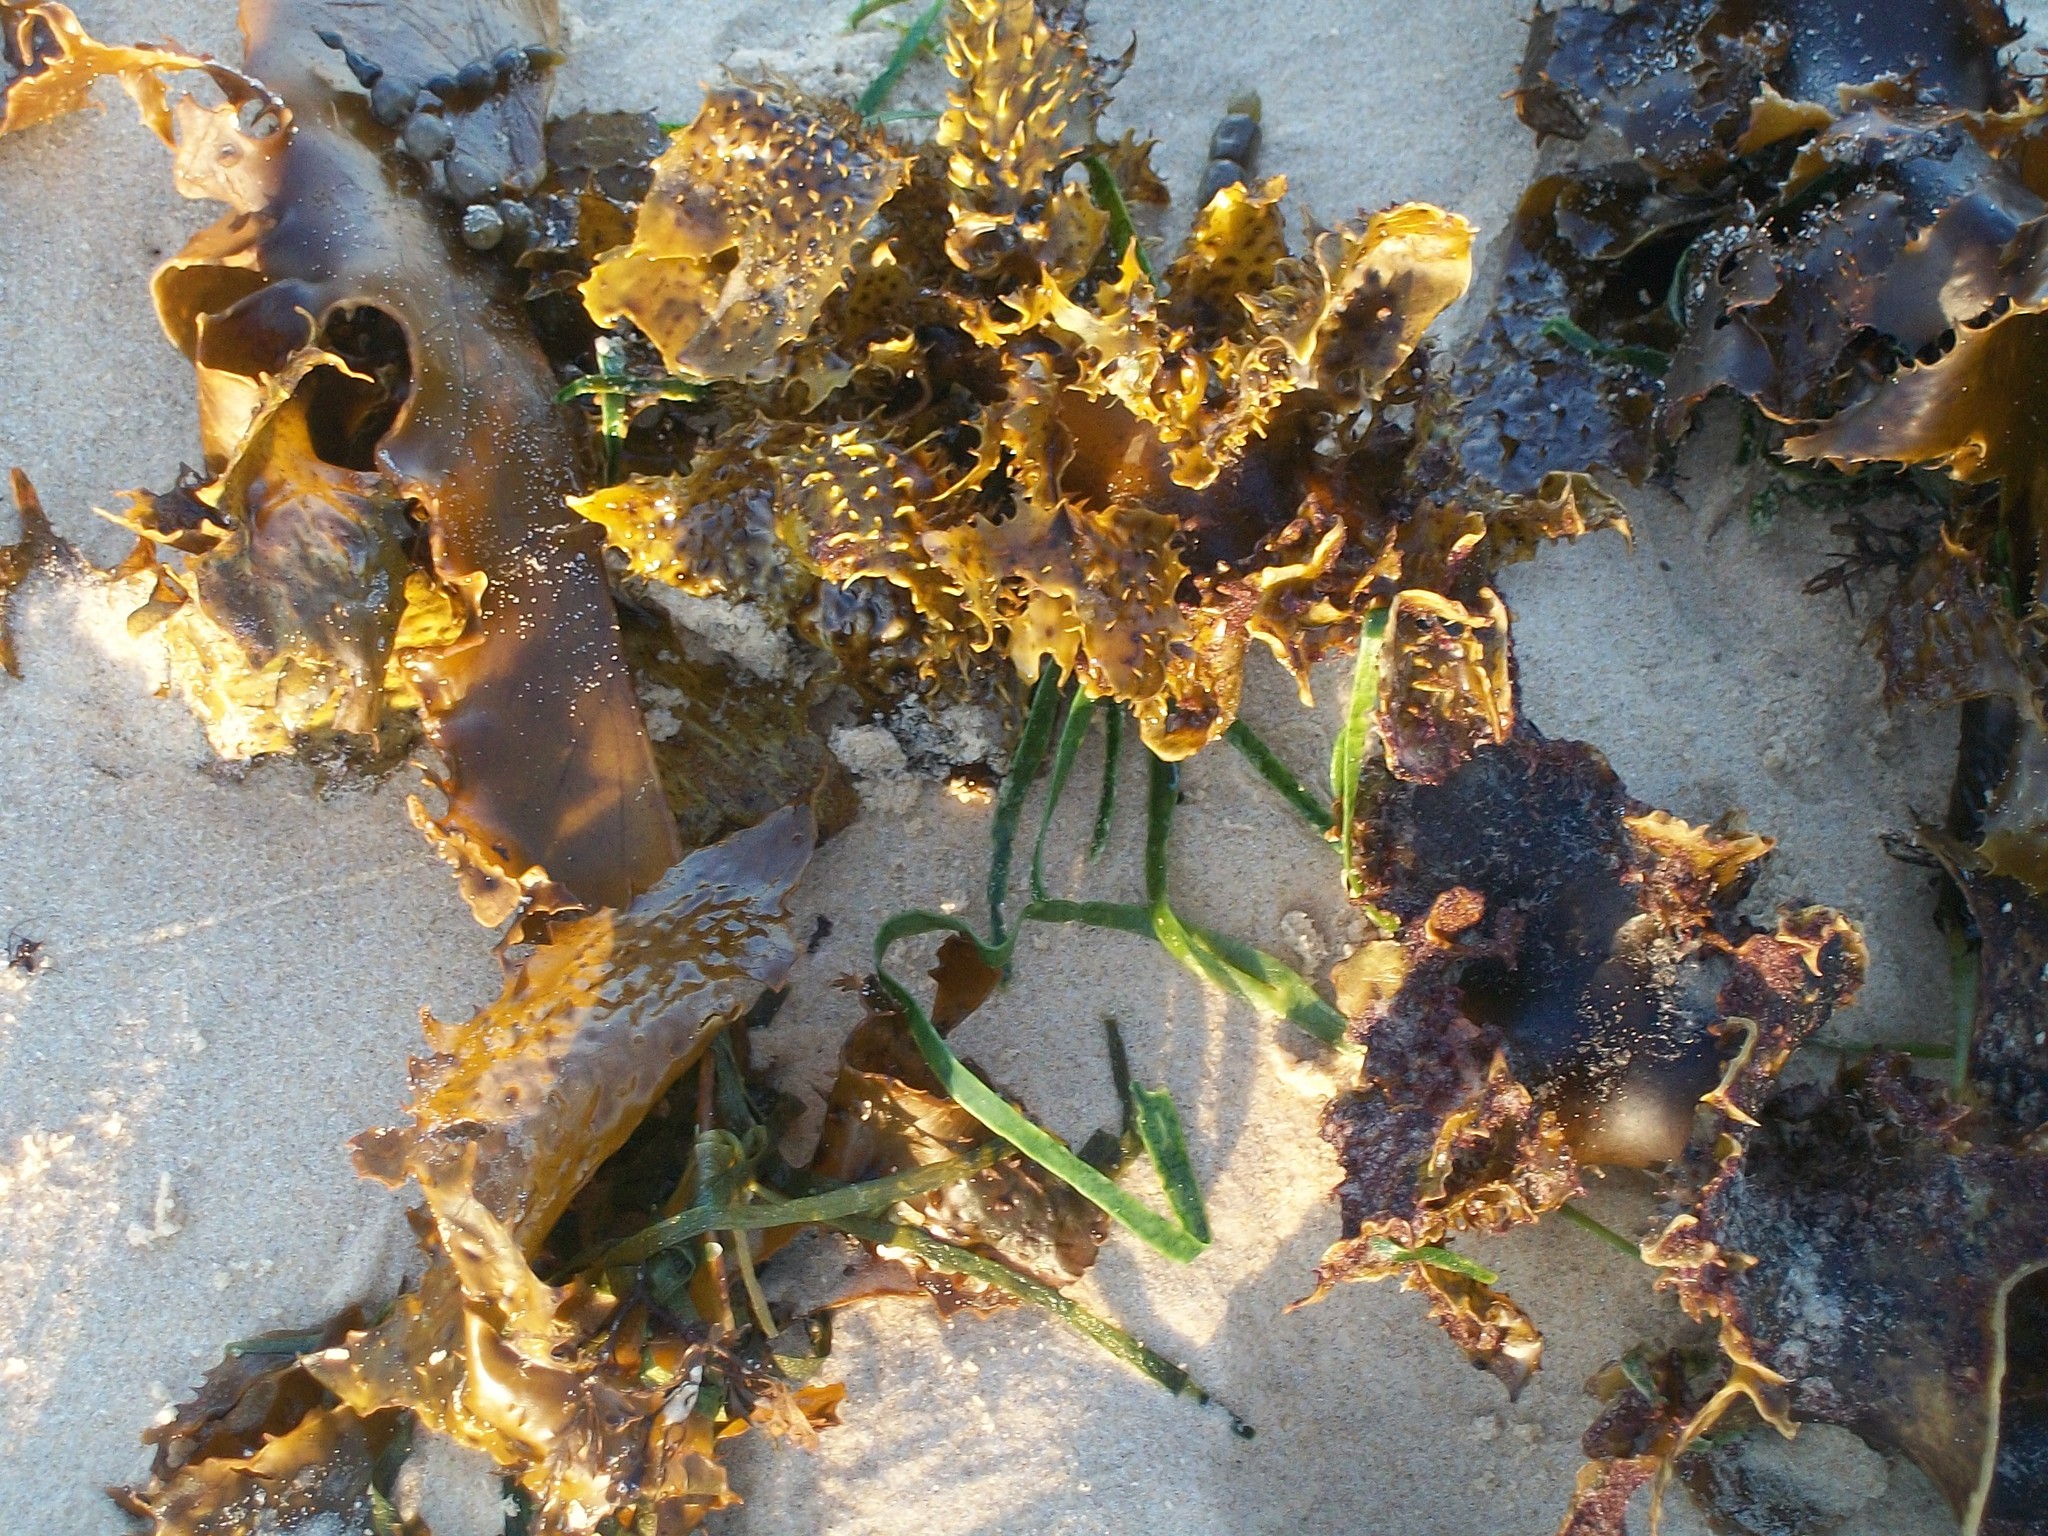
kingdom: Chromista
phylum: Ochrophyta
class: Phaeophyceae
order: Laminariales
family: Lessoniaceae
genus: Ecklonia
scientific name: Ecklonia radiata
